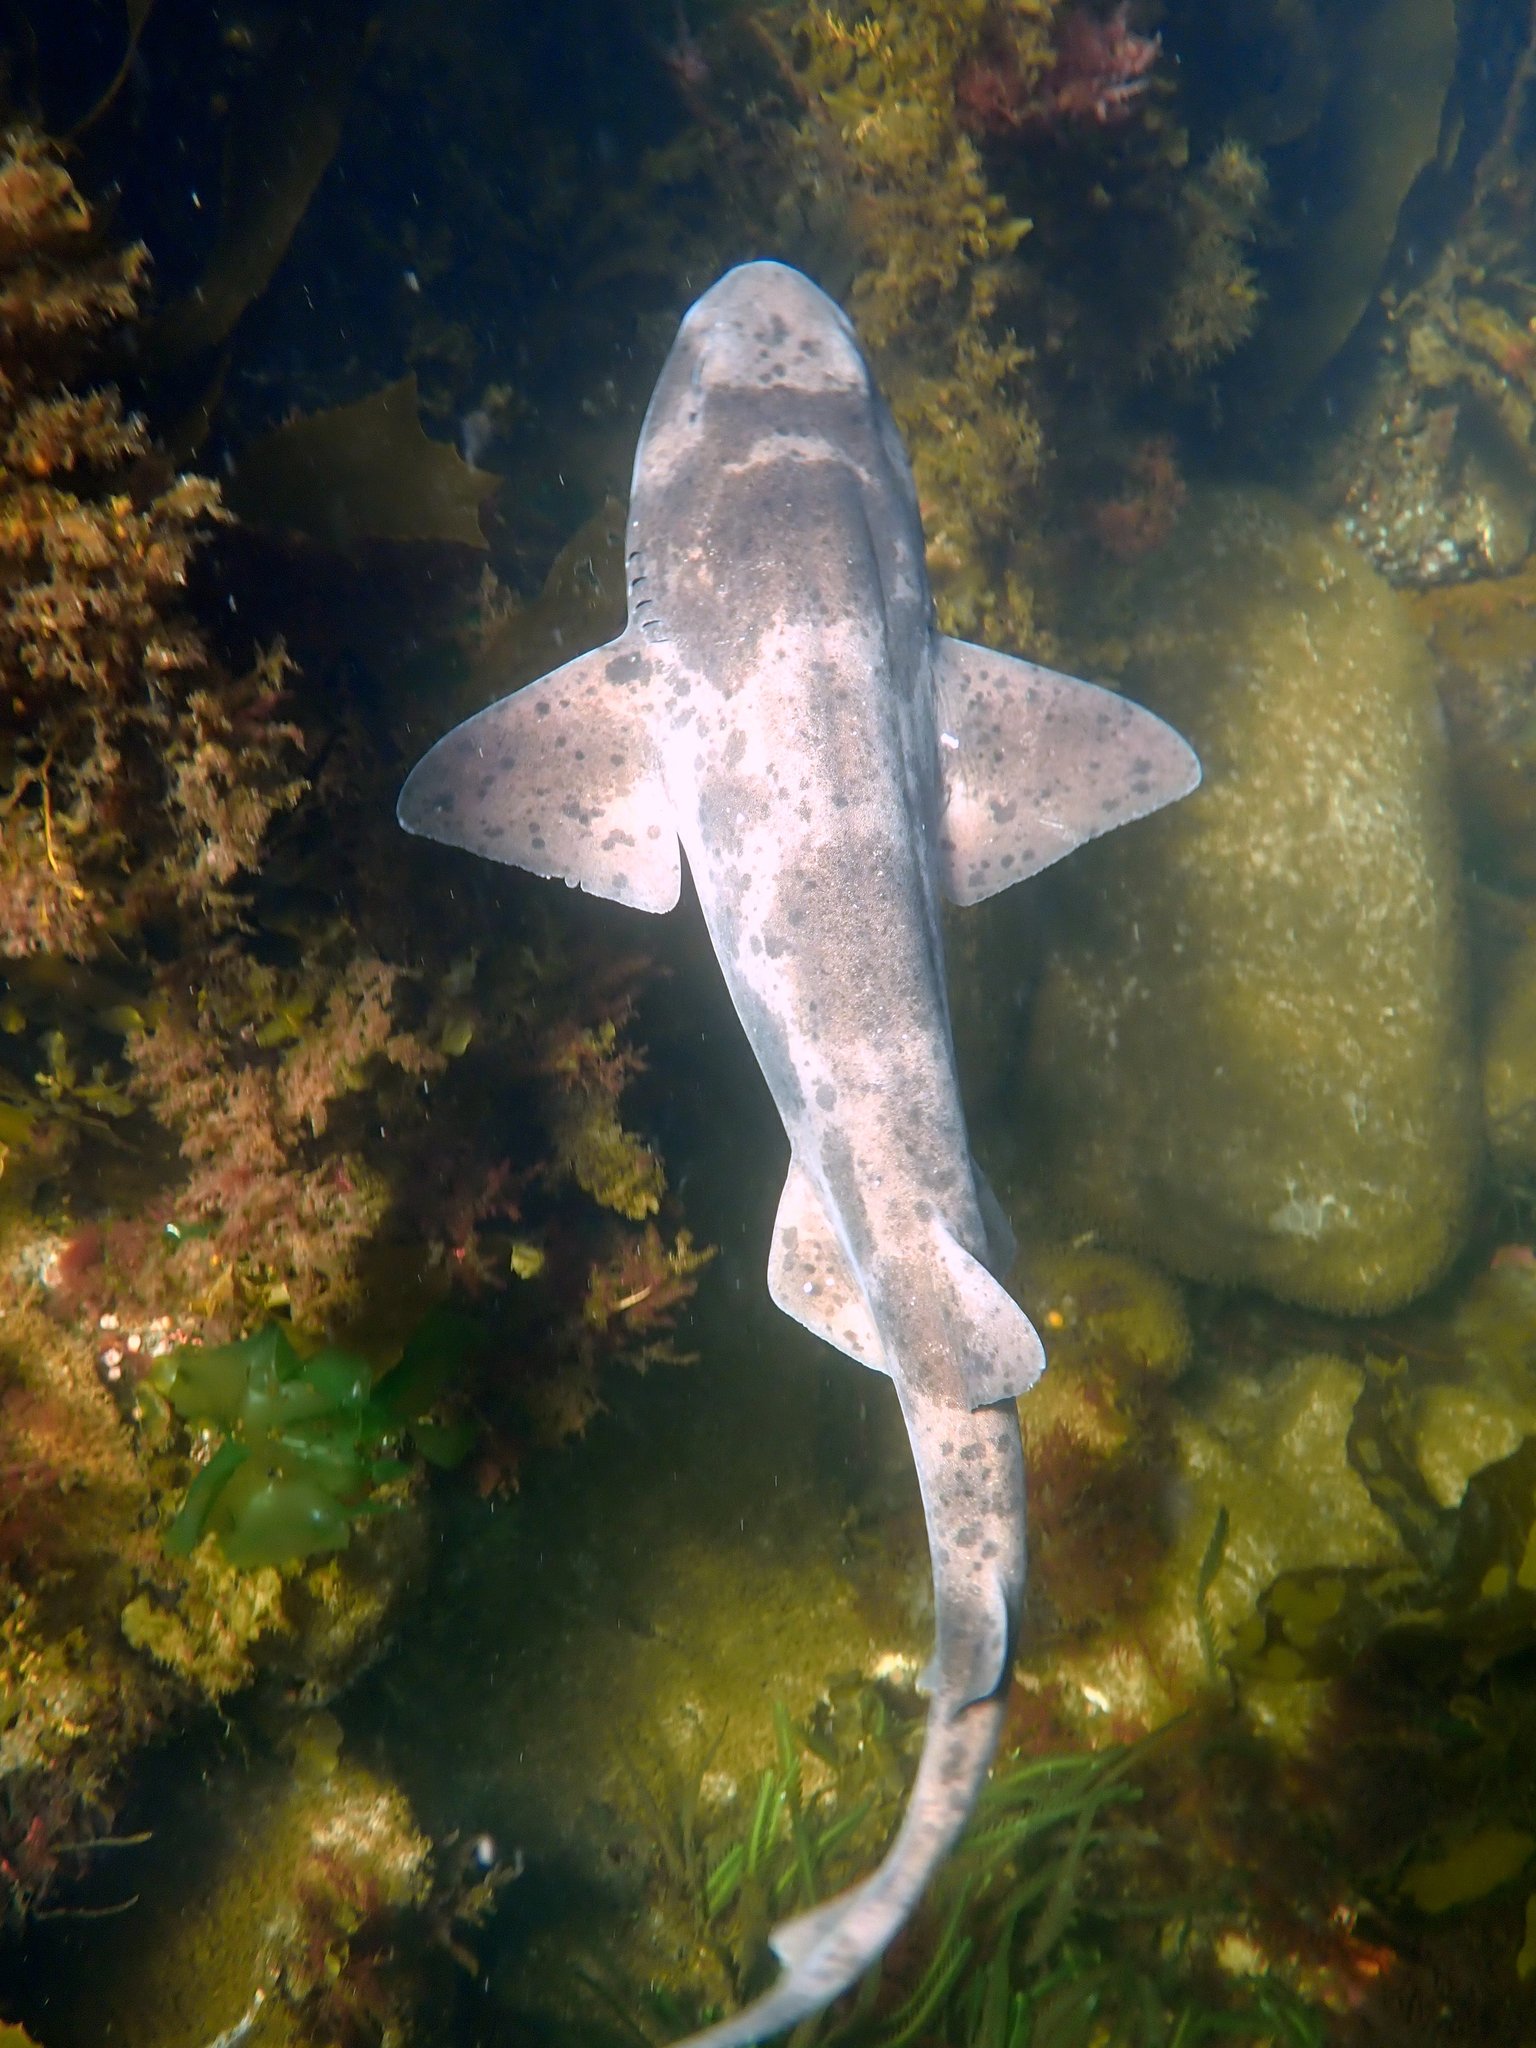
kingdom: Animalia
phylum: Chordata
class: Elasmobranchii
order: Carcharhiniformes
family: Scyliorhinidae
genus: Cephaloscyllium
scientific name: Cephaloscyllium laticeps
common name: Australian swellshark
